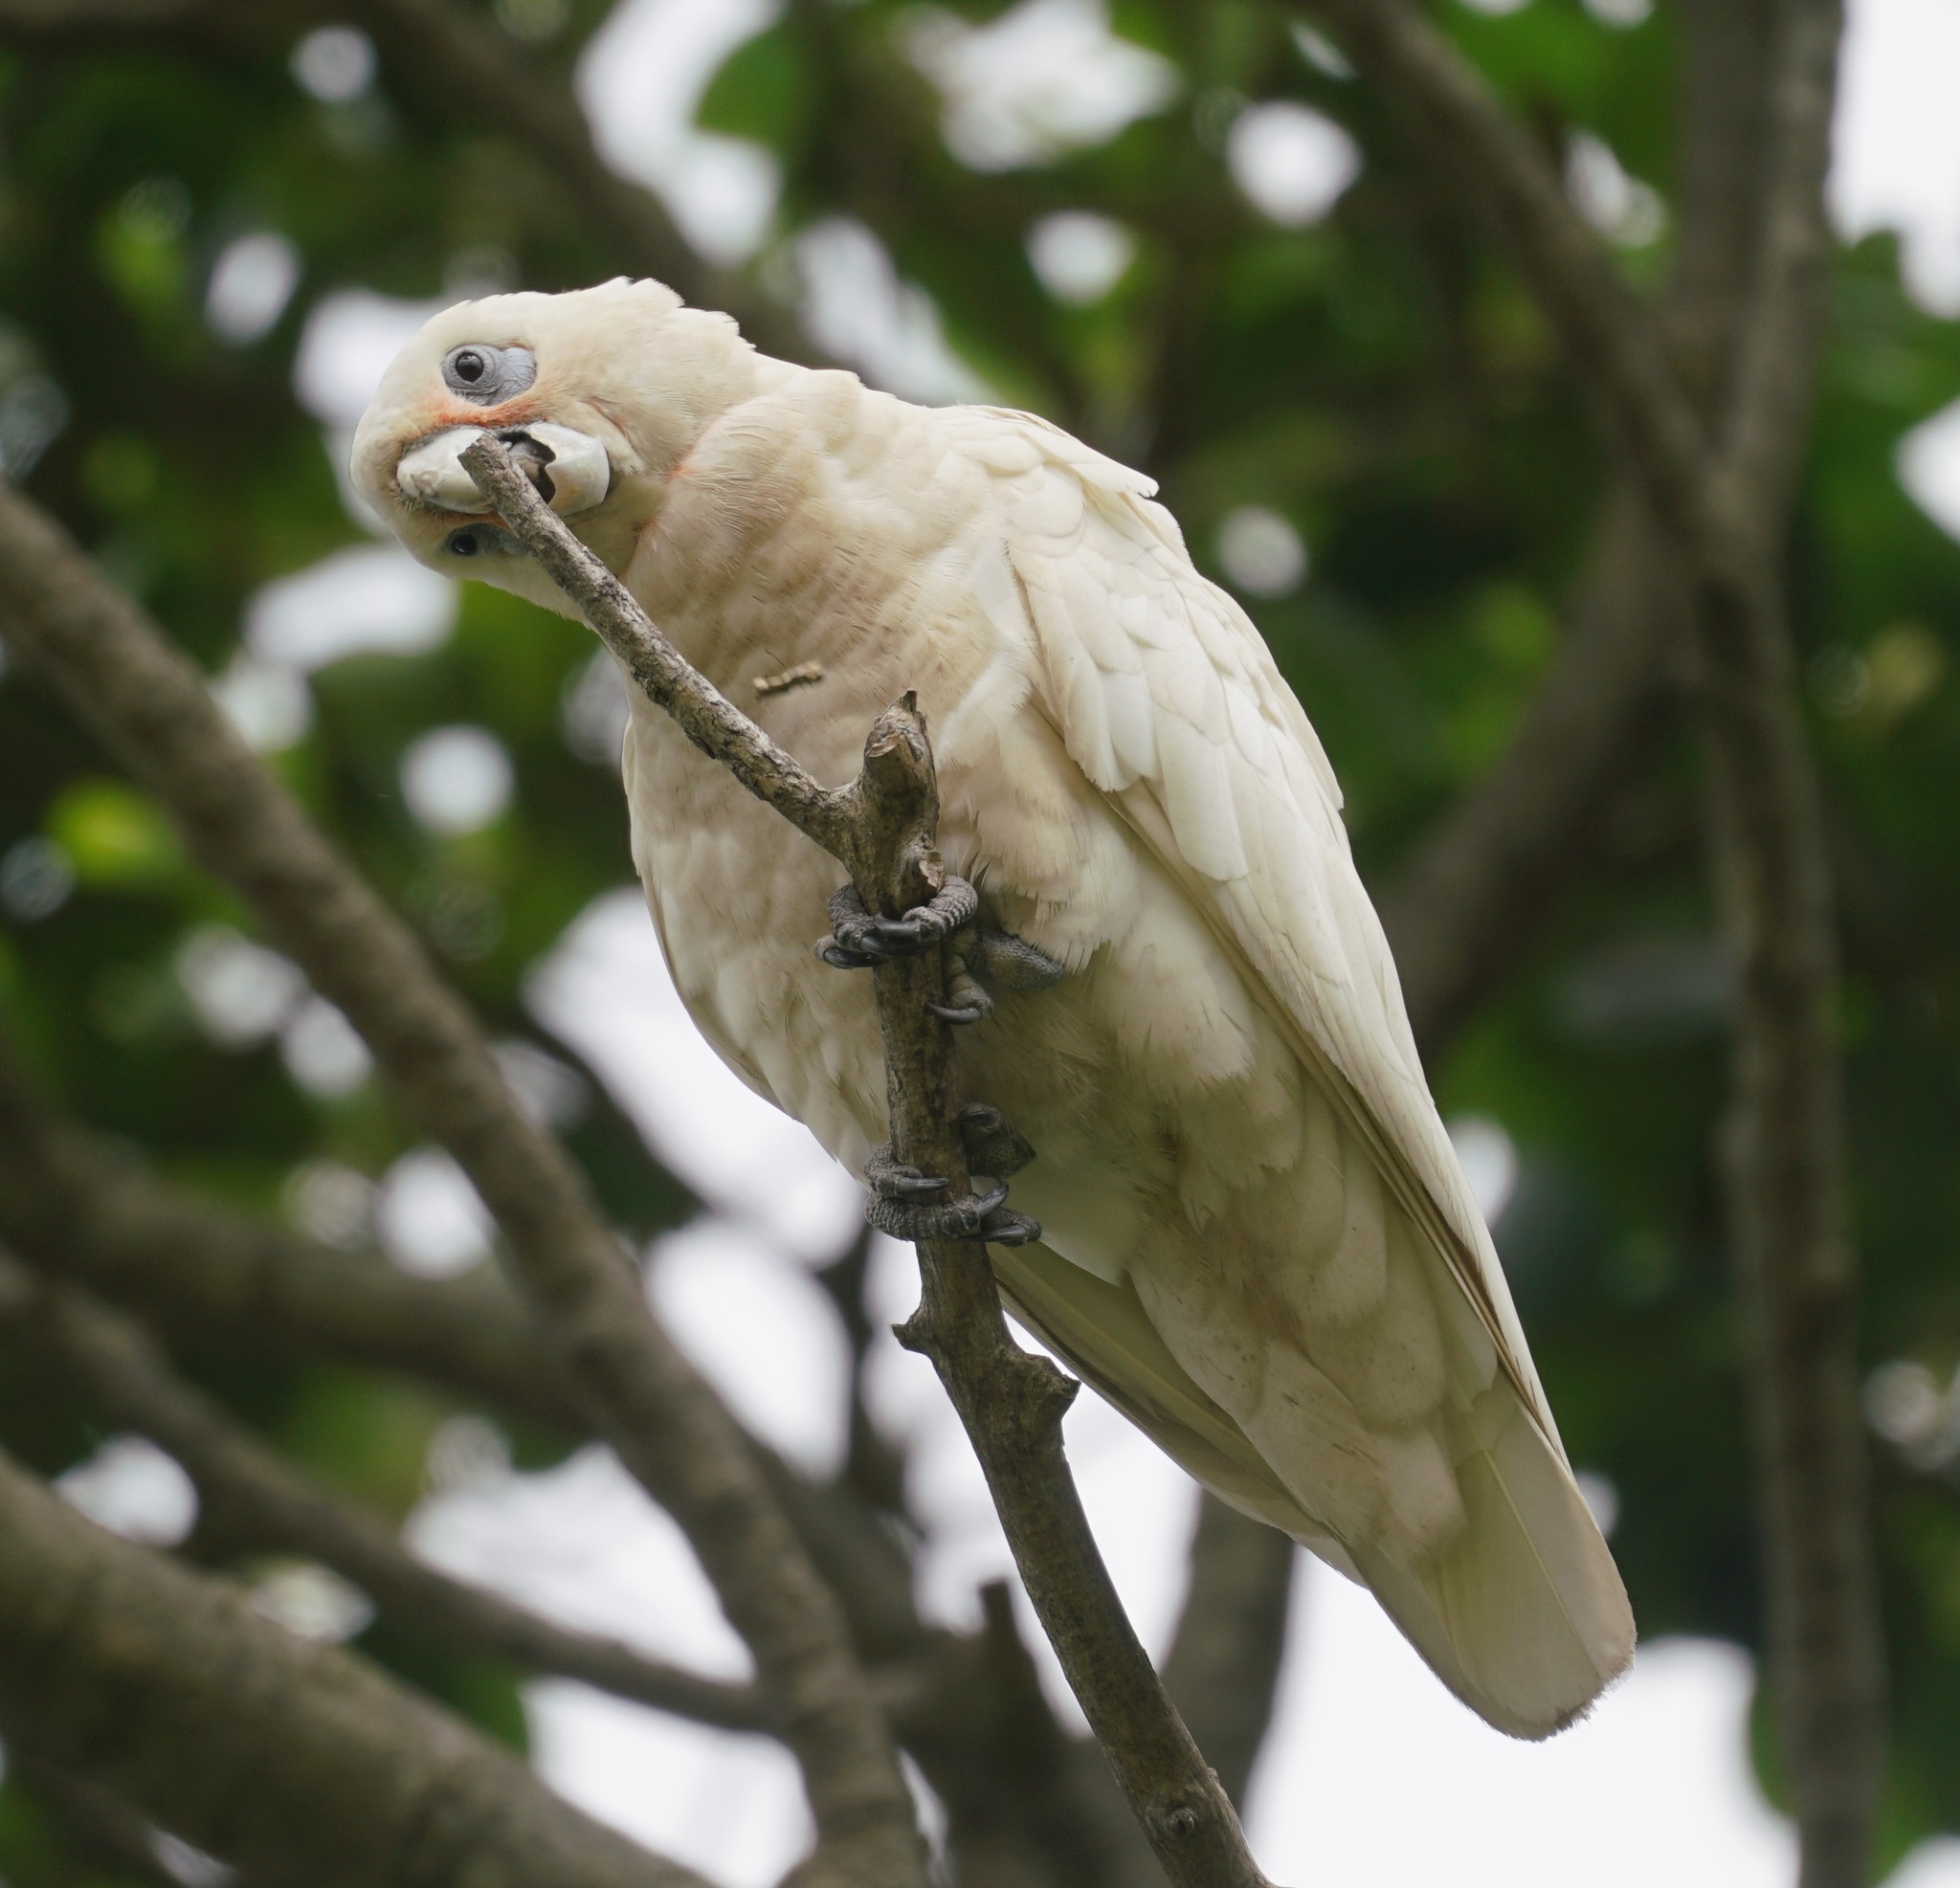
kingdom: Animalia
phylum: Chordata
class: Aves
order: Psittaciformes
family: Psittacidae
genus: Cacatua
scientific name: Cacatua sanguinea
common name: Little corella
